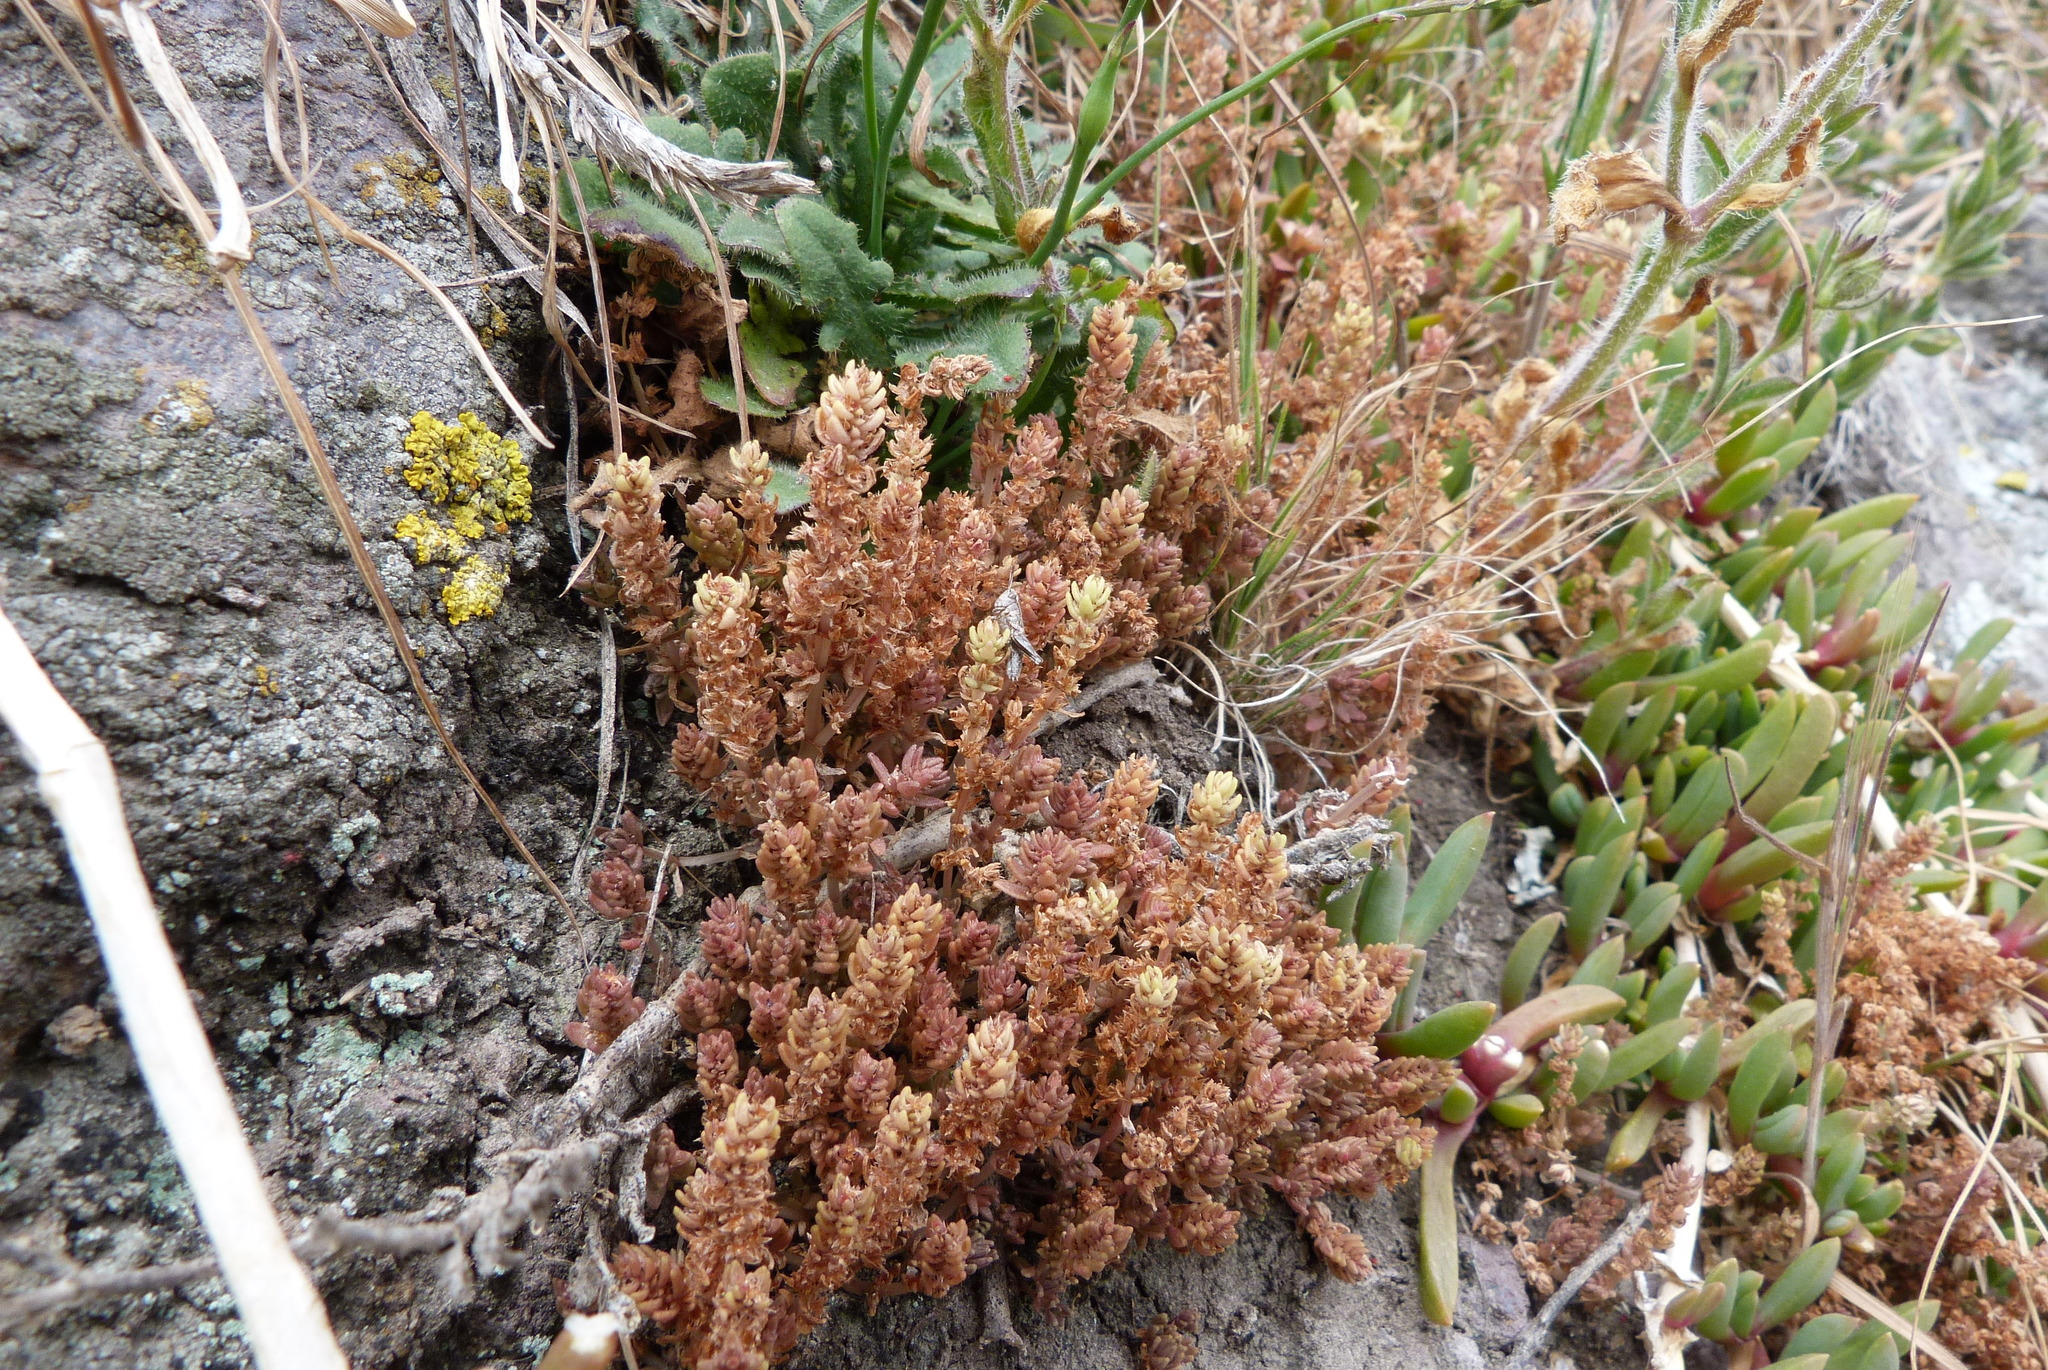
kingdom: Plantae
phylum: Tracheophyta
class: Magnoliopsida
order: Saxifragales
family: Crassulaceae
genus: Crassula
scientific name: Crassula sieberiana
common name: Siberian pygmyweed
